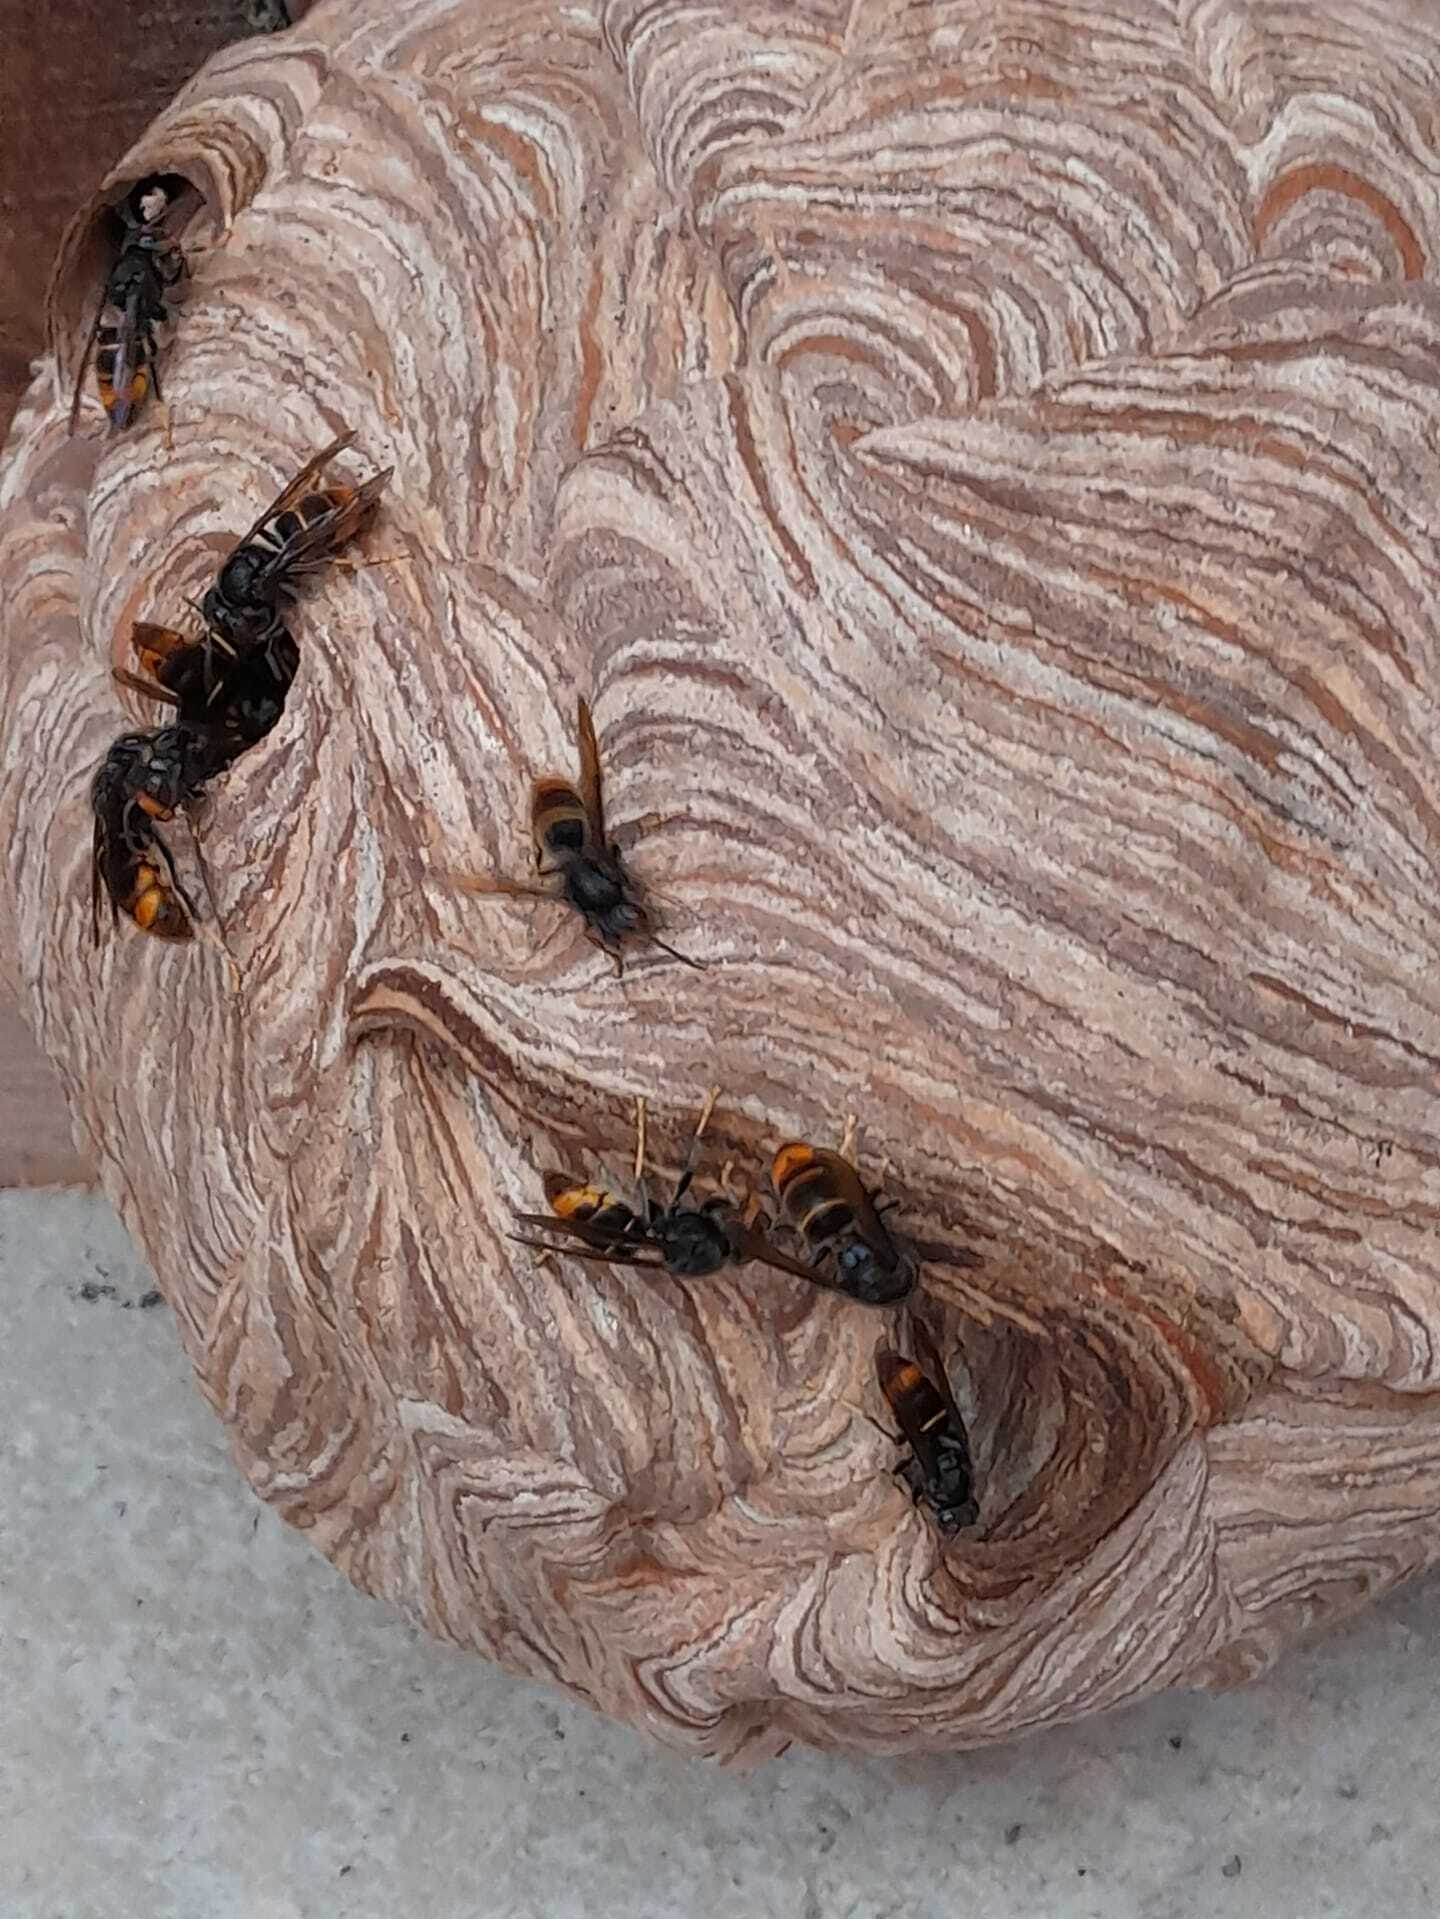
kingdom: Animalia
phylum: Arthropoda
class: Insecta
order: Hymenoptera
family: Vespidae
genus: Vespa
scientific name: Vespa velutina
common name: Asian hornet
